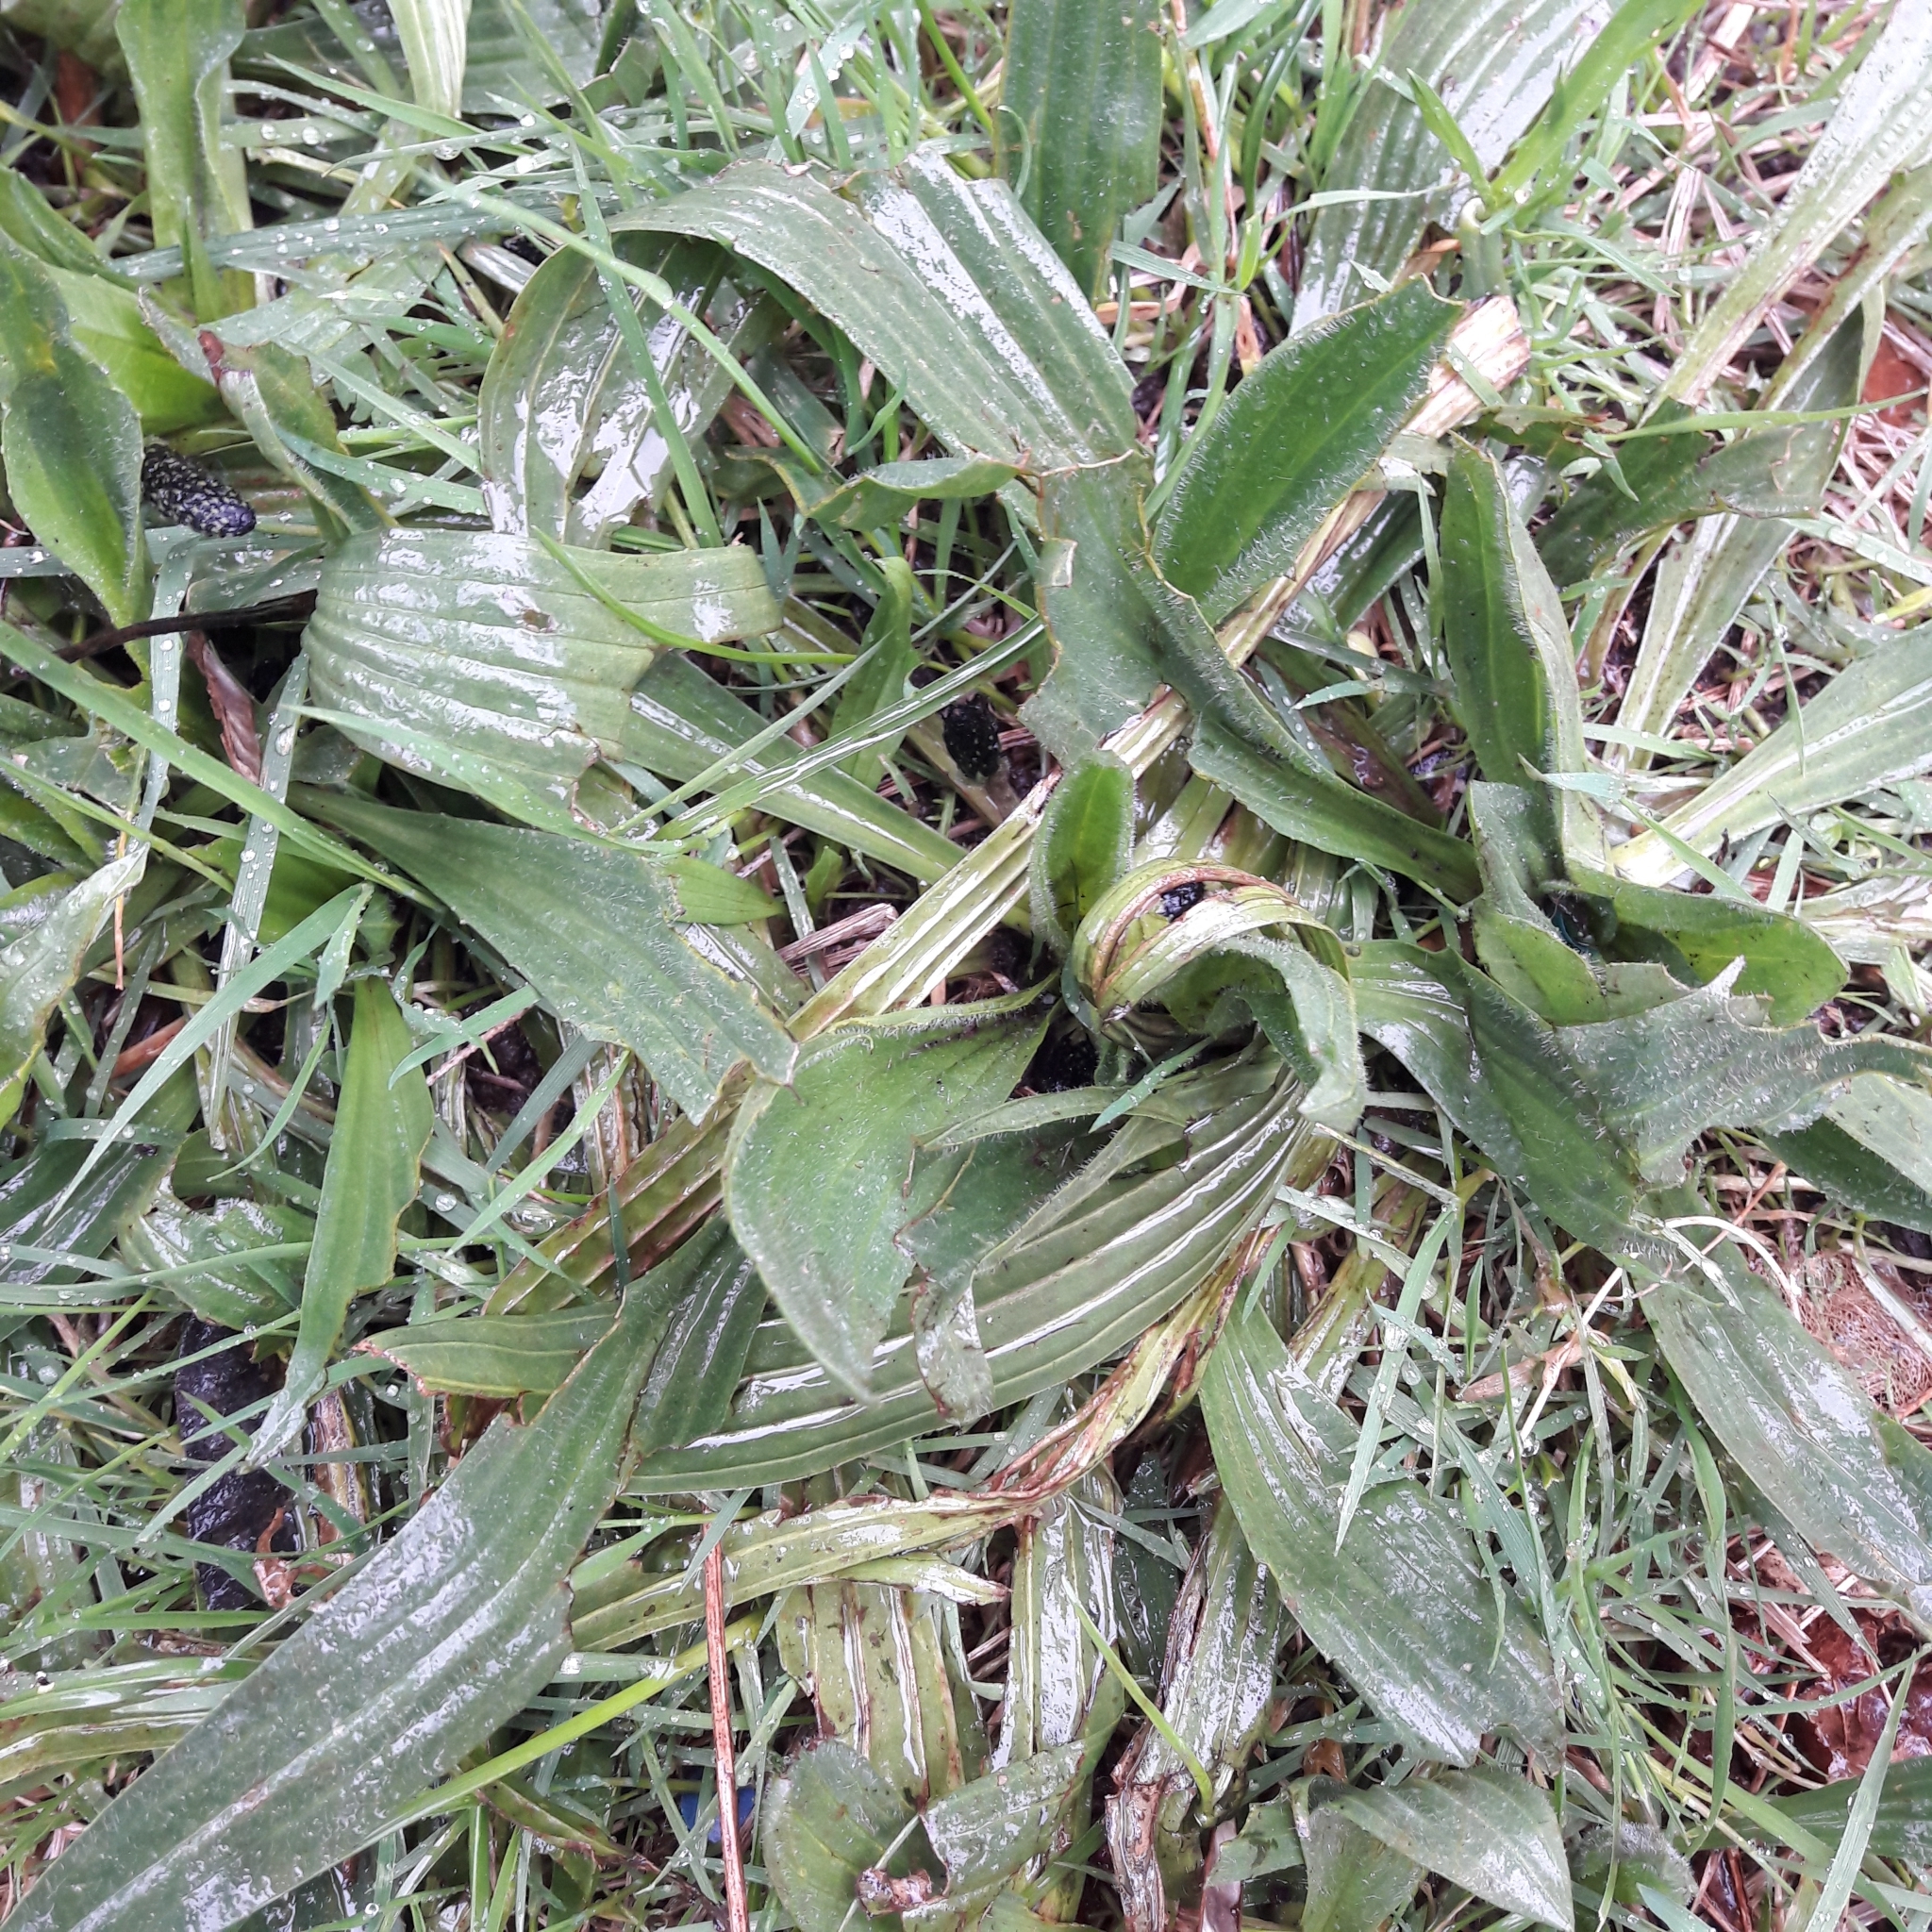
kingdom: Plantae
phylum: Tracheophyta
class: Magnoliopsida
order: Lamiales
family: Plantaginaceae
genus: Plantago
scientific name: Plantago lanceolata
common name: Ribwort plantain
